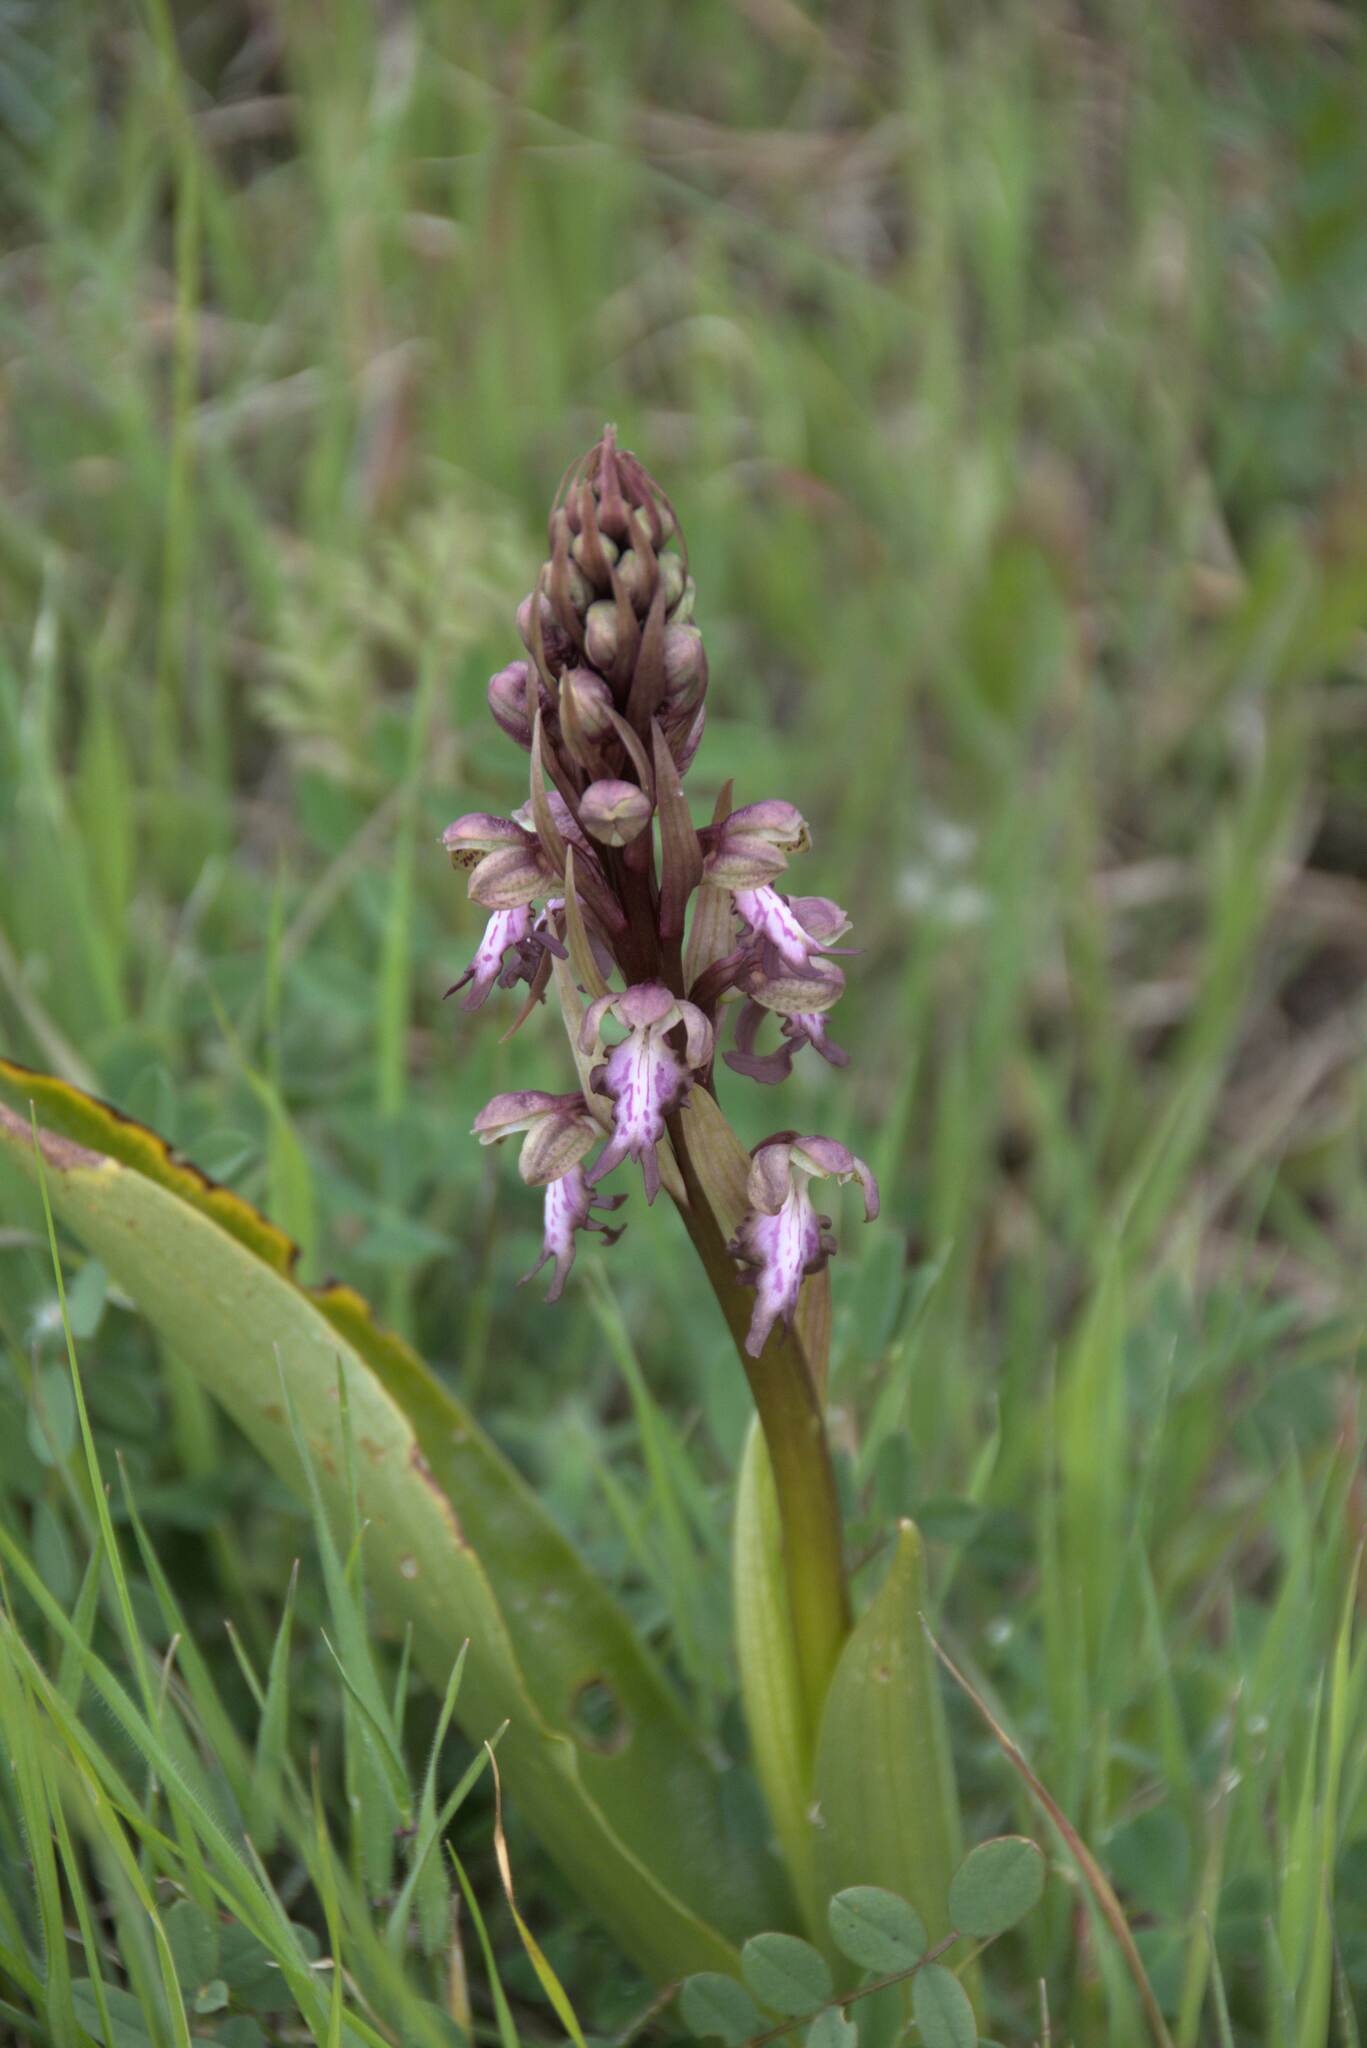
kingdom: Plantae
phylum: Tracheophyta
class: Liliopsida
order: Asparagales
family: Orchidaceae
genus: Himantoglossum
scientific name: Himantoglossum robertianum
